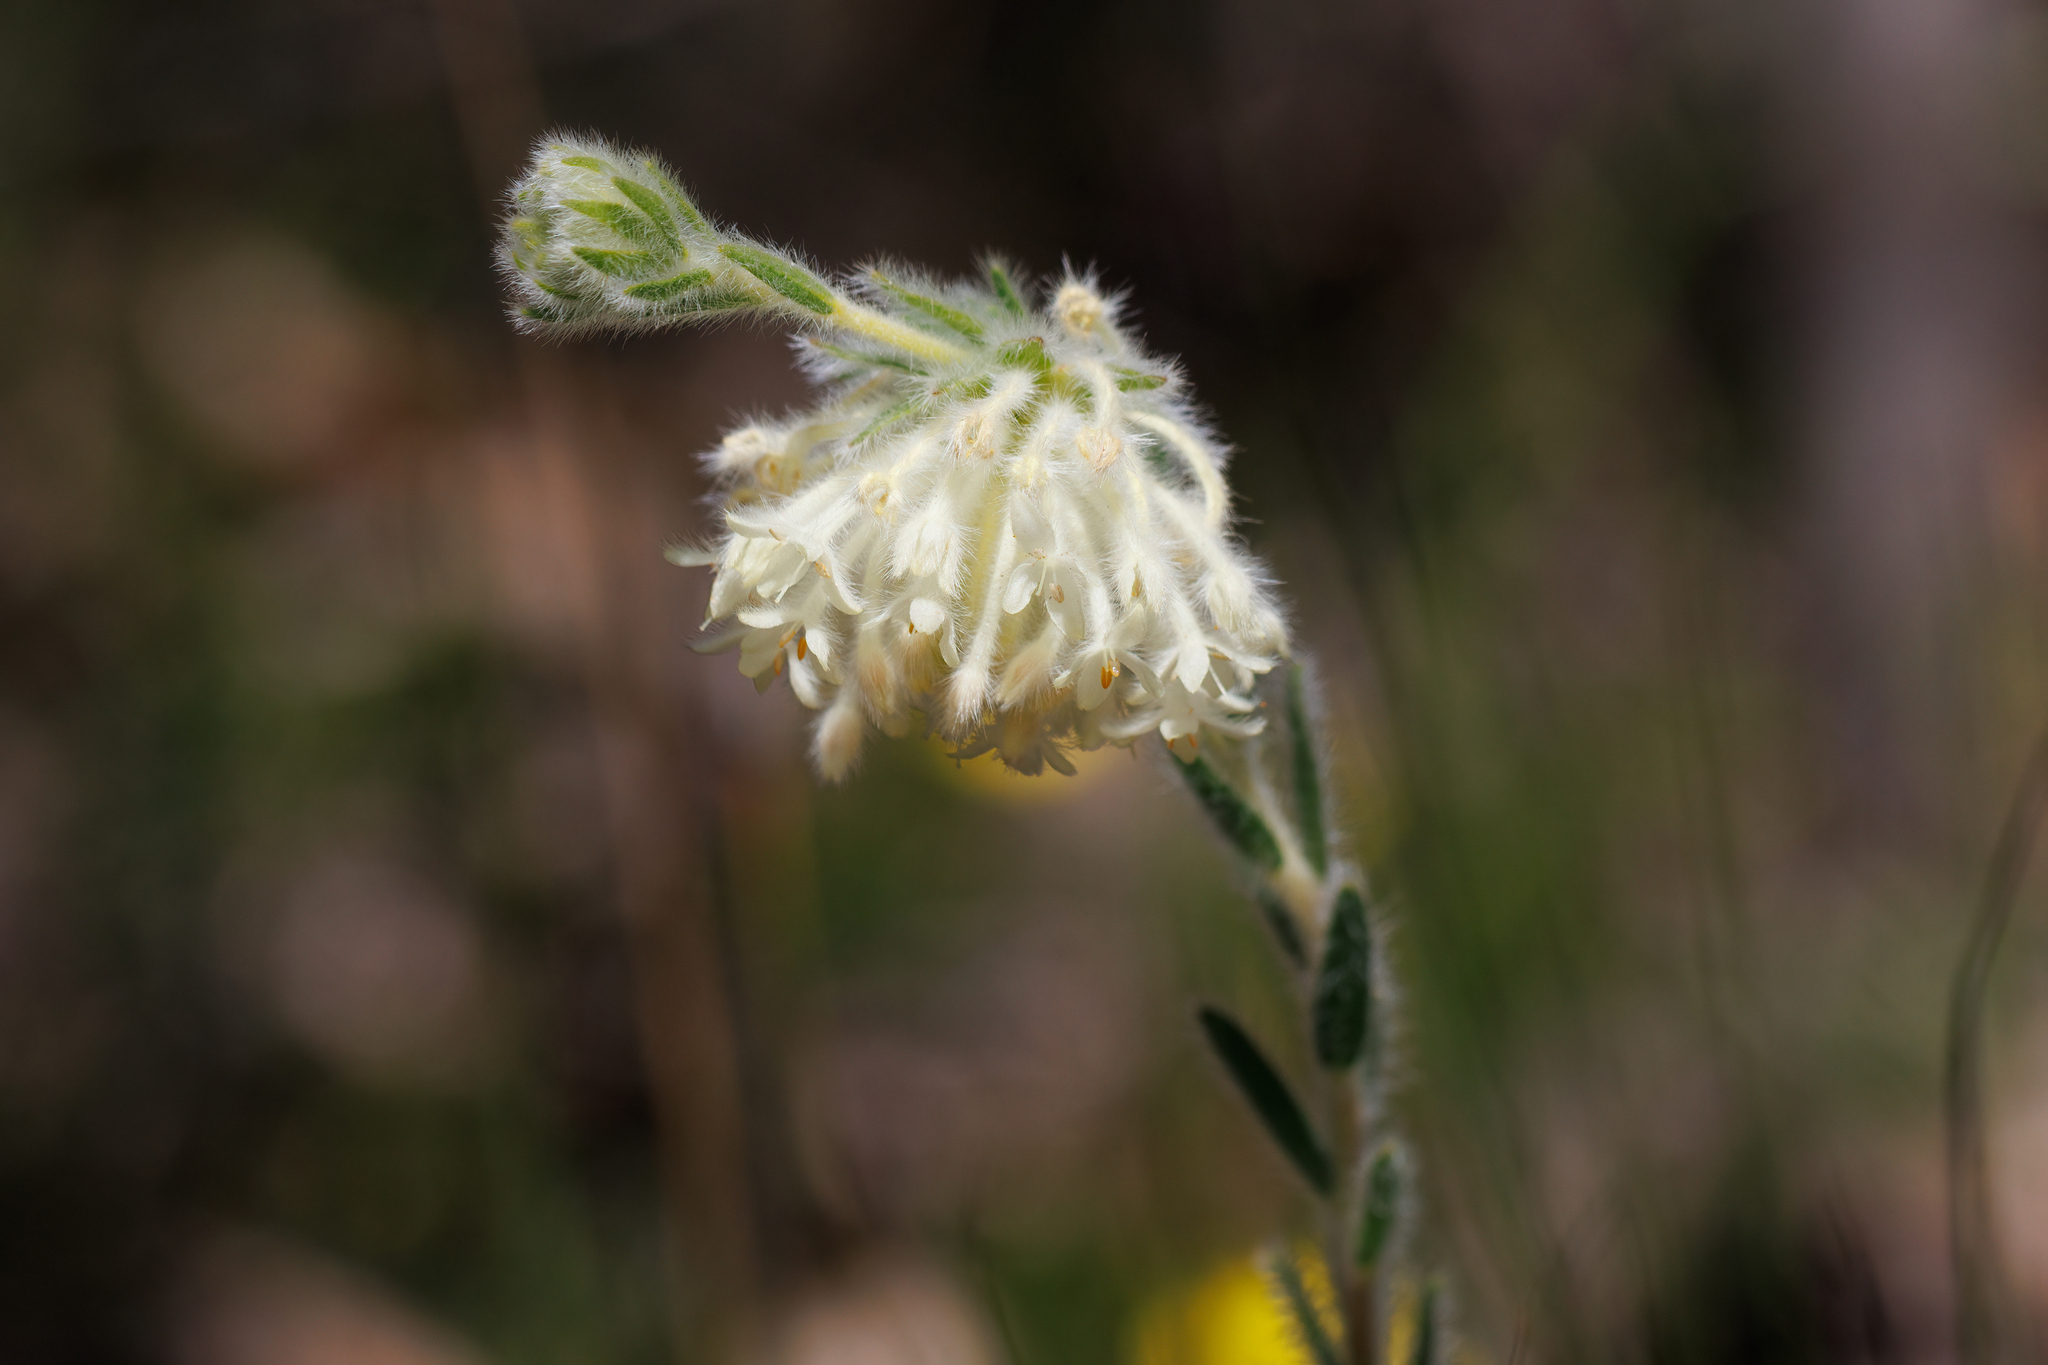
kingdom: Plantae
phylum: Tracheophyta
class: Magnoliopsida
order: Malvales
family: Thymelaeaceae
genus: Pimelea
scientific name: Pimelea octophylla
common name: Woolly riceflower
